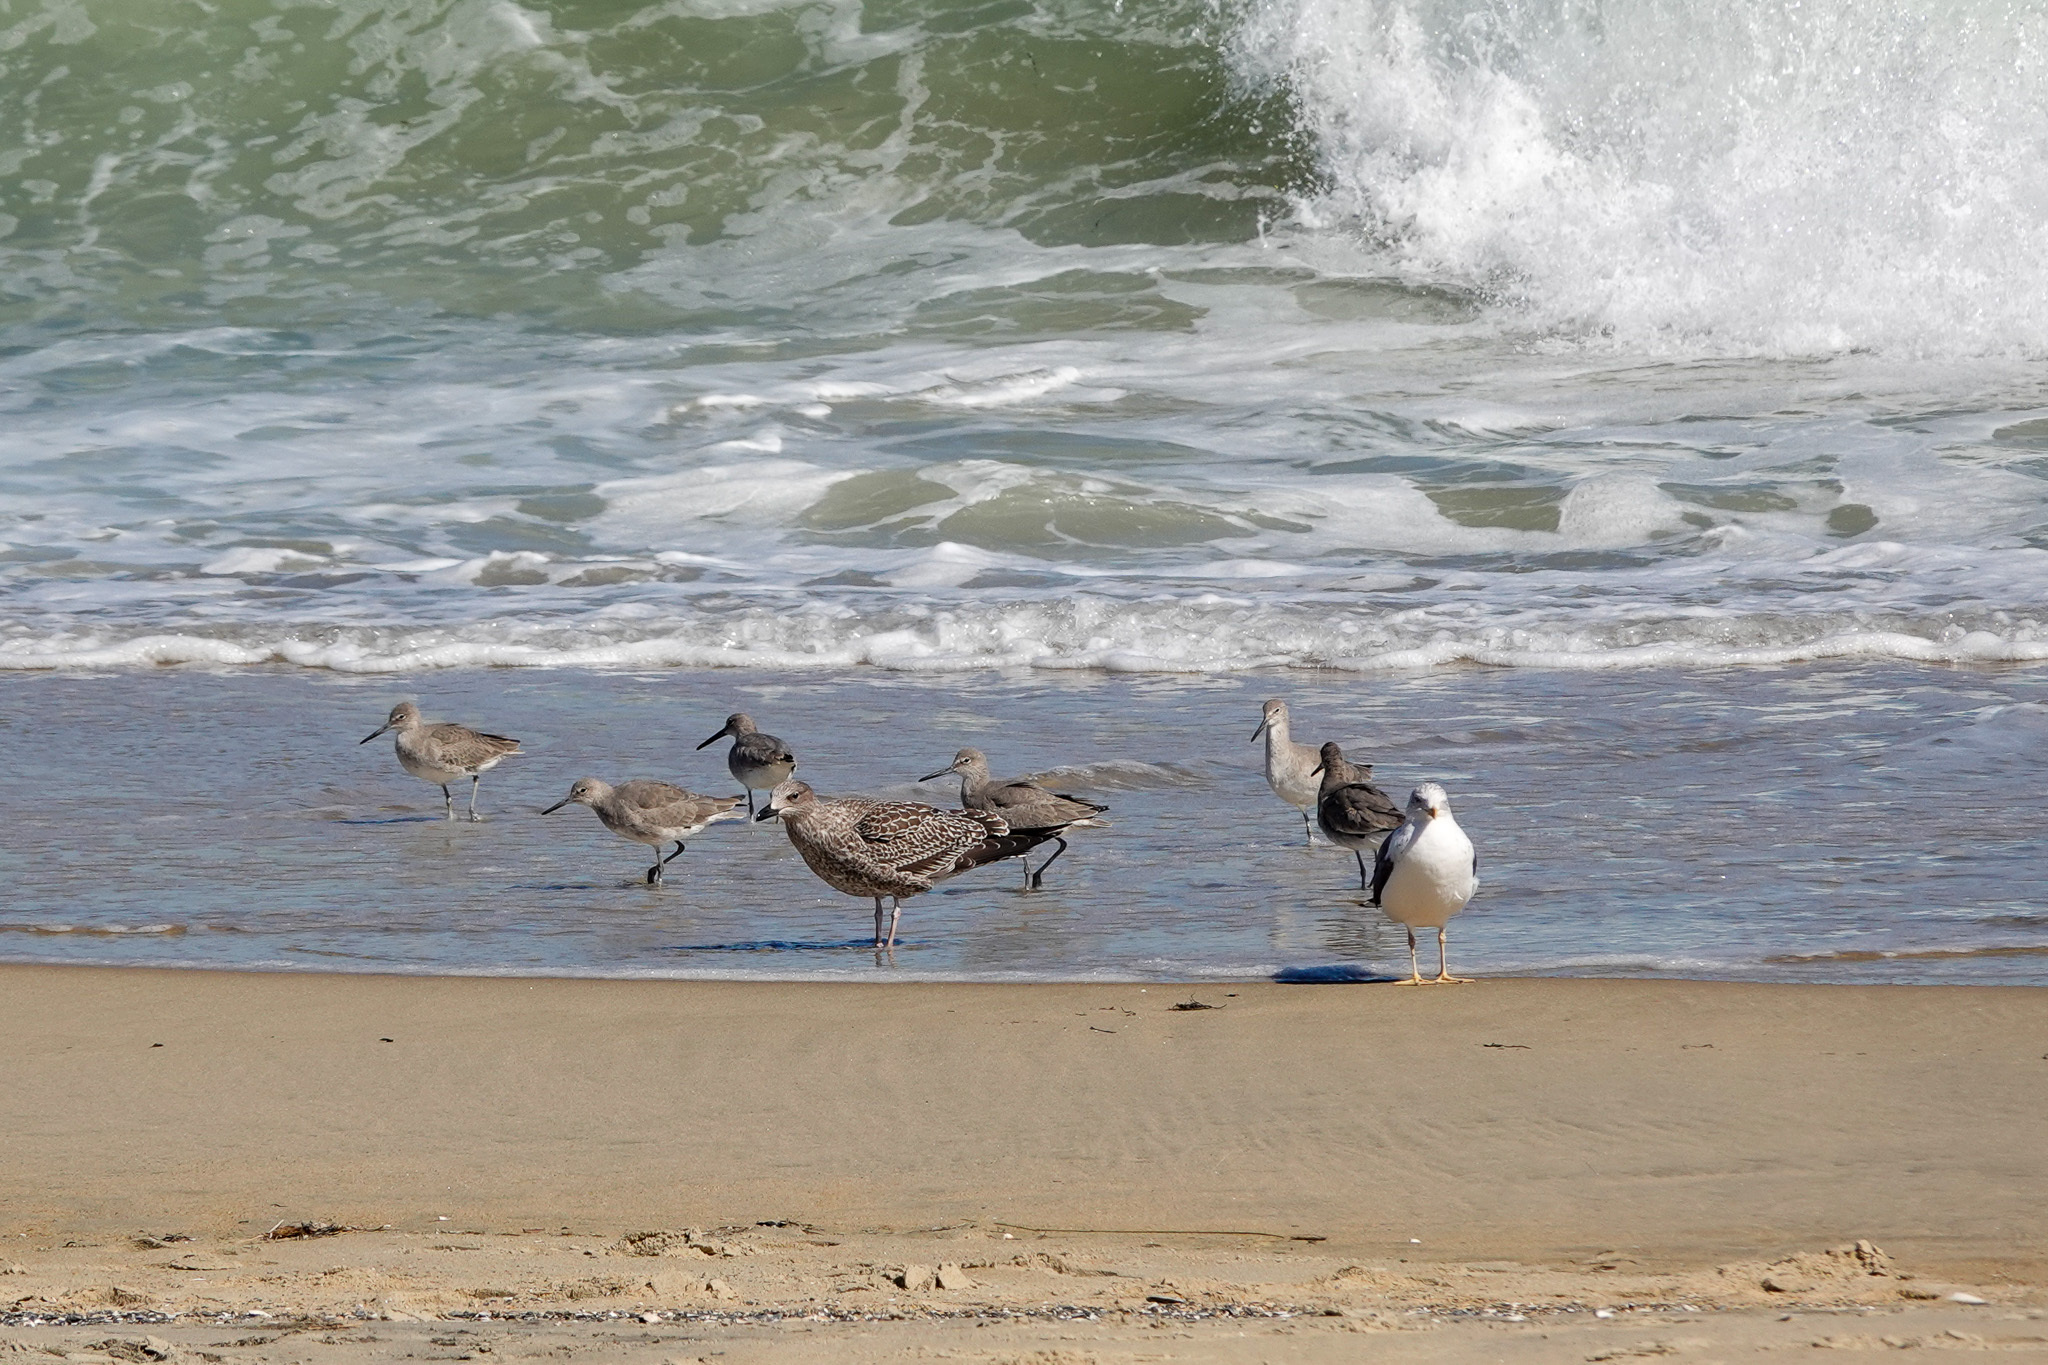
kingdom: Animalia
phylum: Chordata
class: Aves
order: Charadriiformes
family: Scolopacidae
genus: Tringa
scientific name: Tringa semipalmata
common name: Willet
